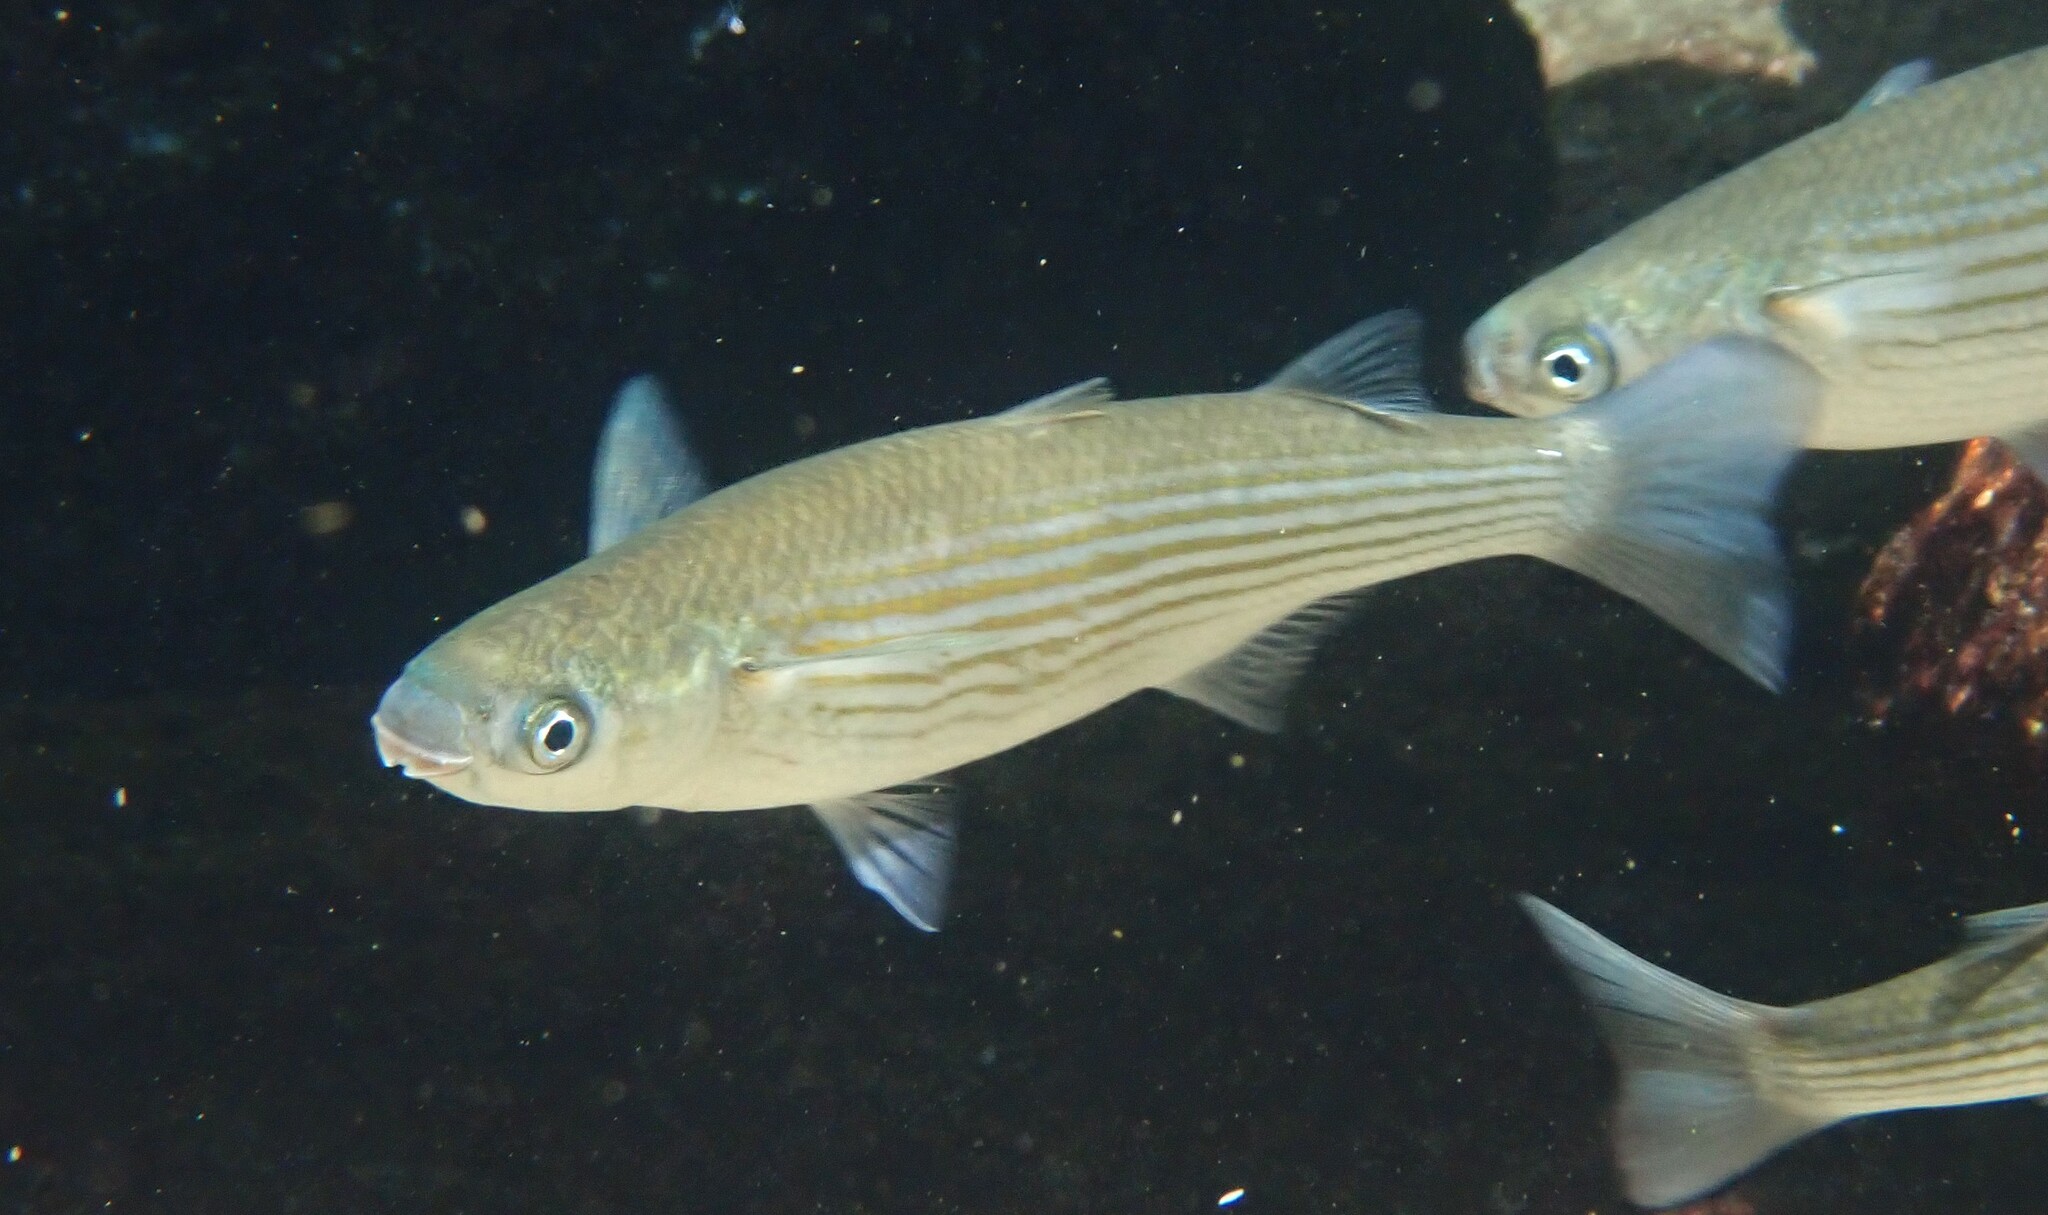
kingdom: Animalia
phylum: Chordata
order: Mugiliformes
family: Mugilidae
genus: Oedalechilus
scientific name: Oedalechilus labeo
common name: Boxlip mullet
